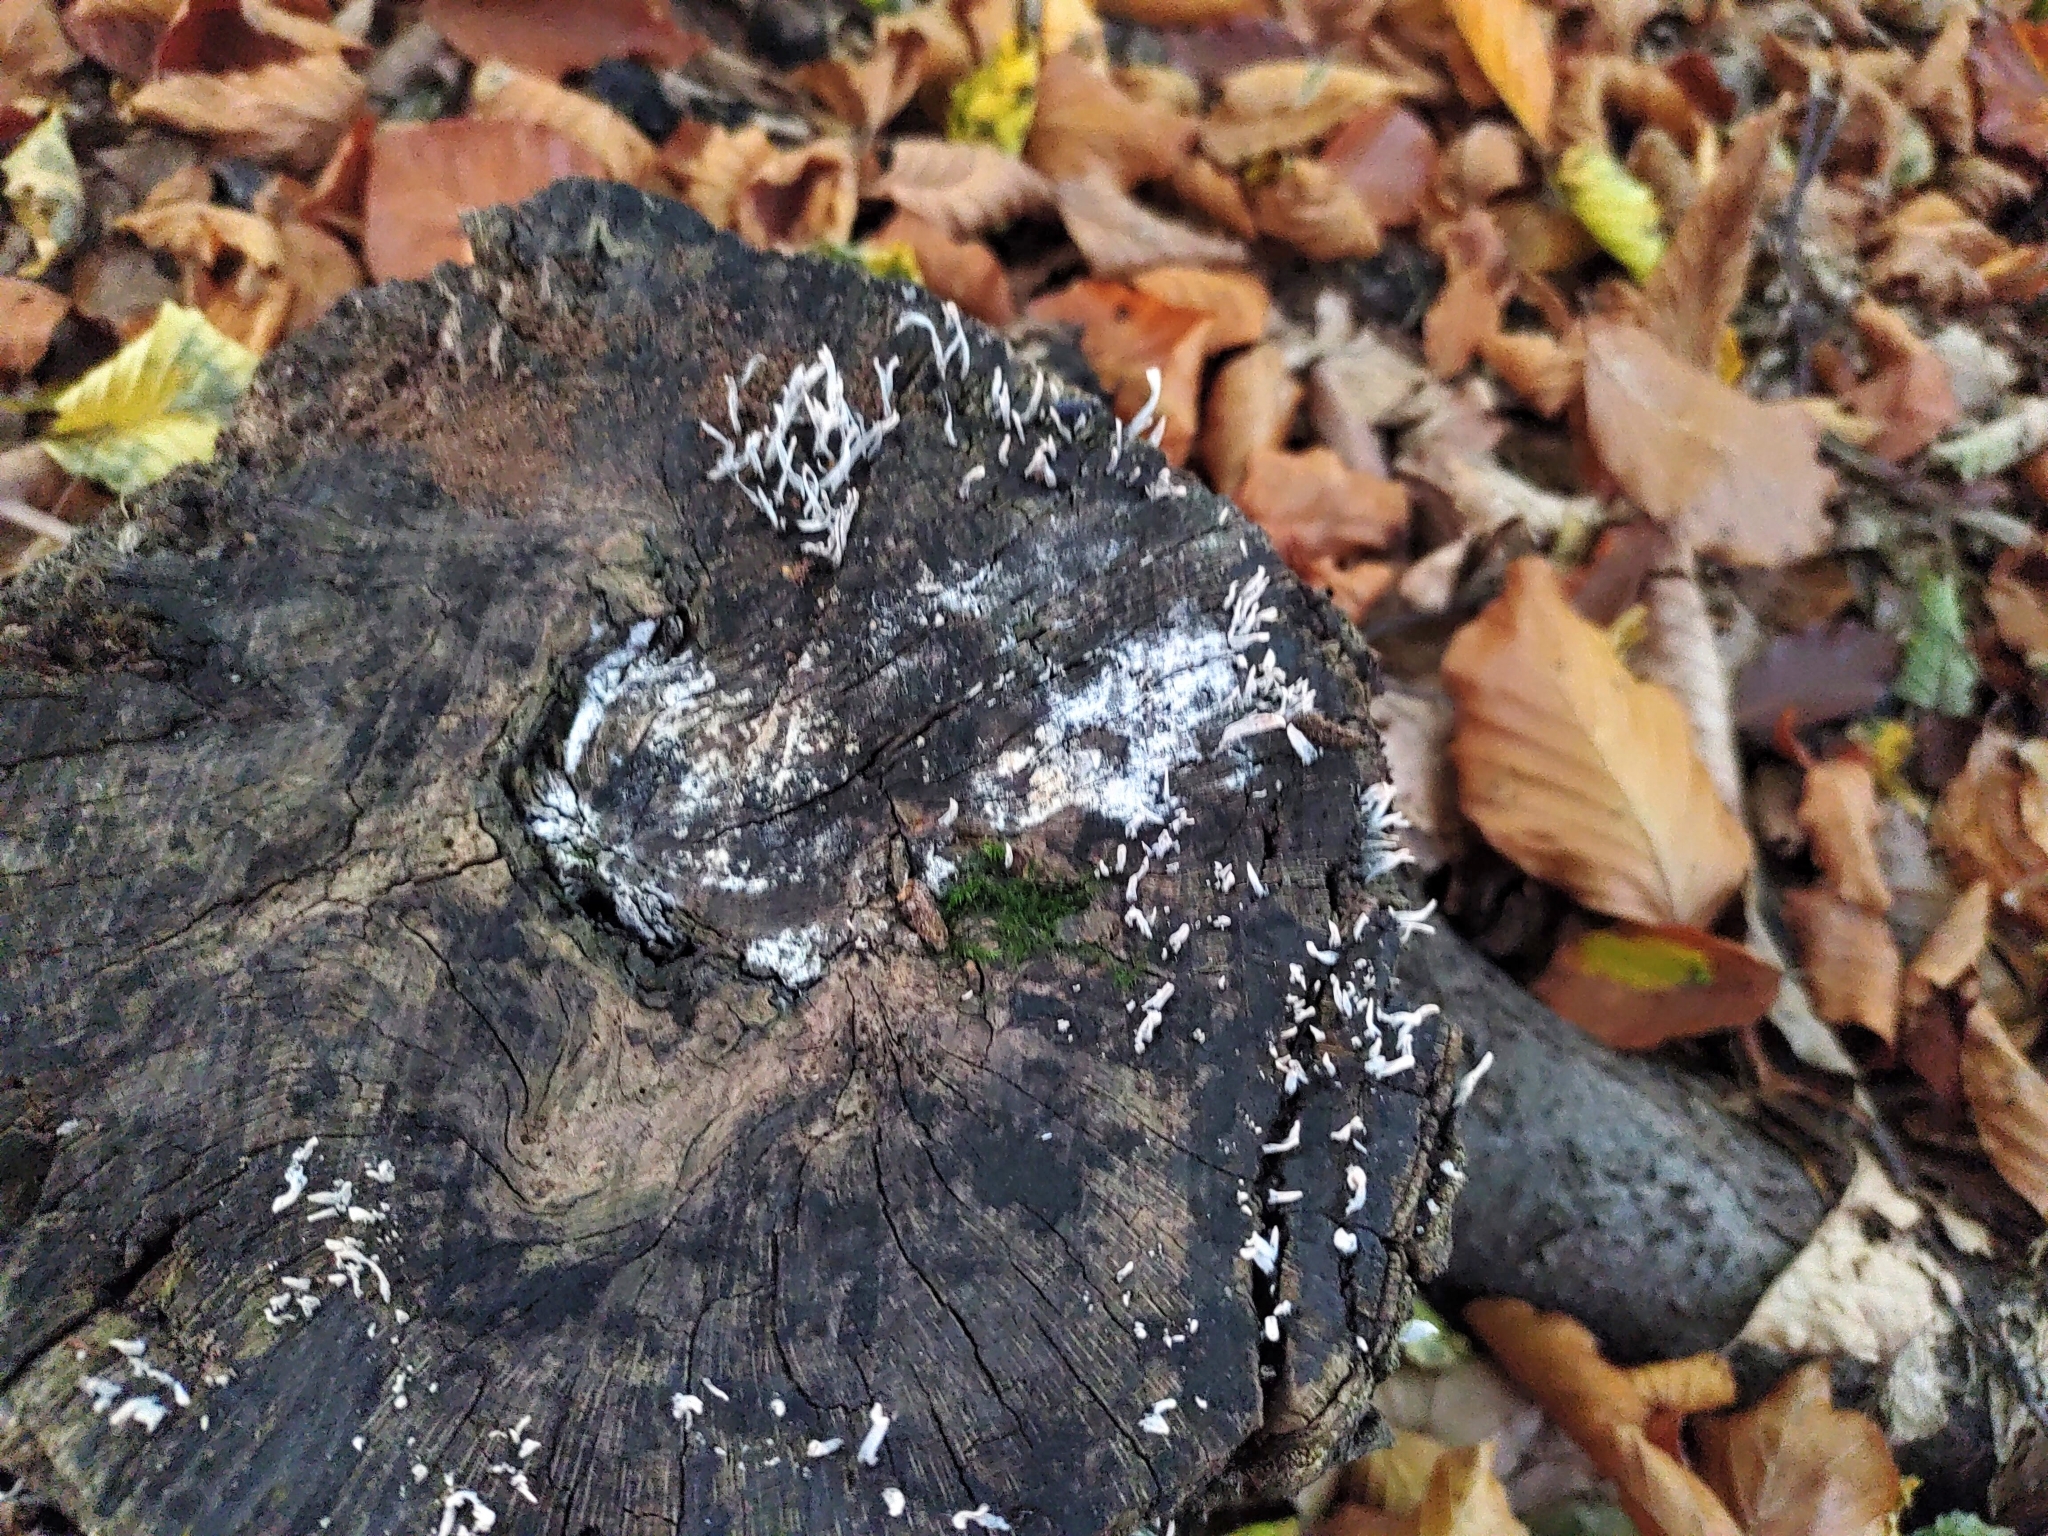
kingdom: Fungi
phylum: Ascomycota
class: Sordariomycetes
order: Xylariales
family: Xylariaceae
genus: Xylaria
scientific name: Xylaria hypoxylon
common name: Candle-snuff fungus
